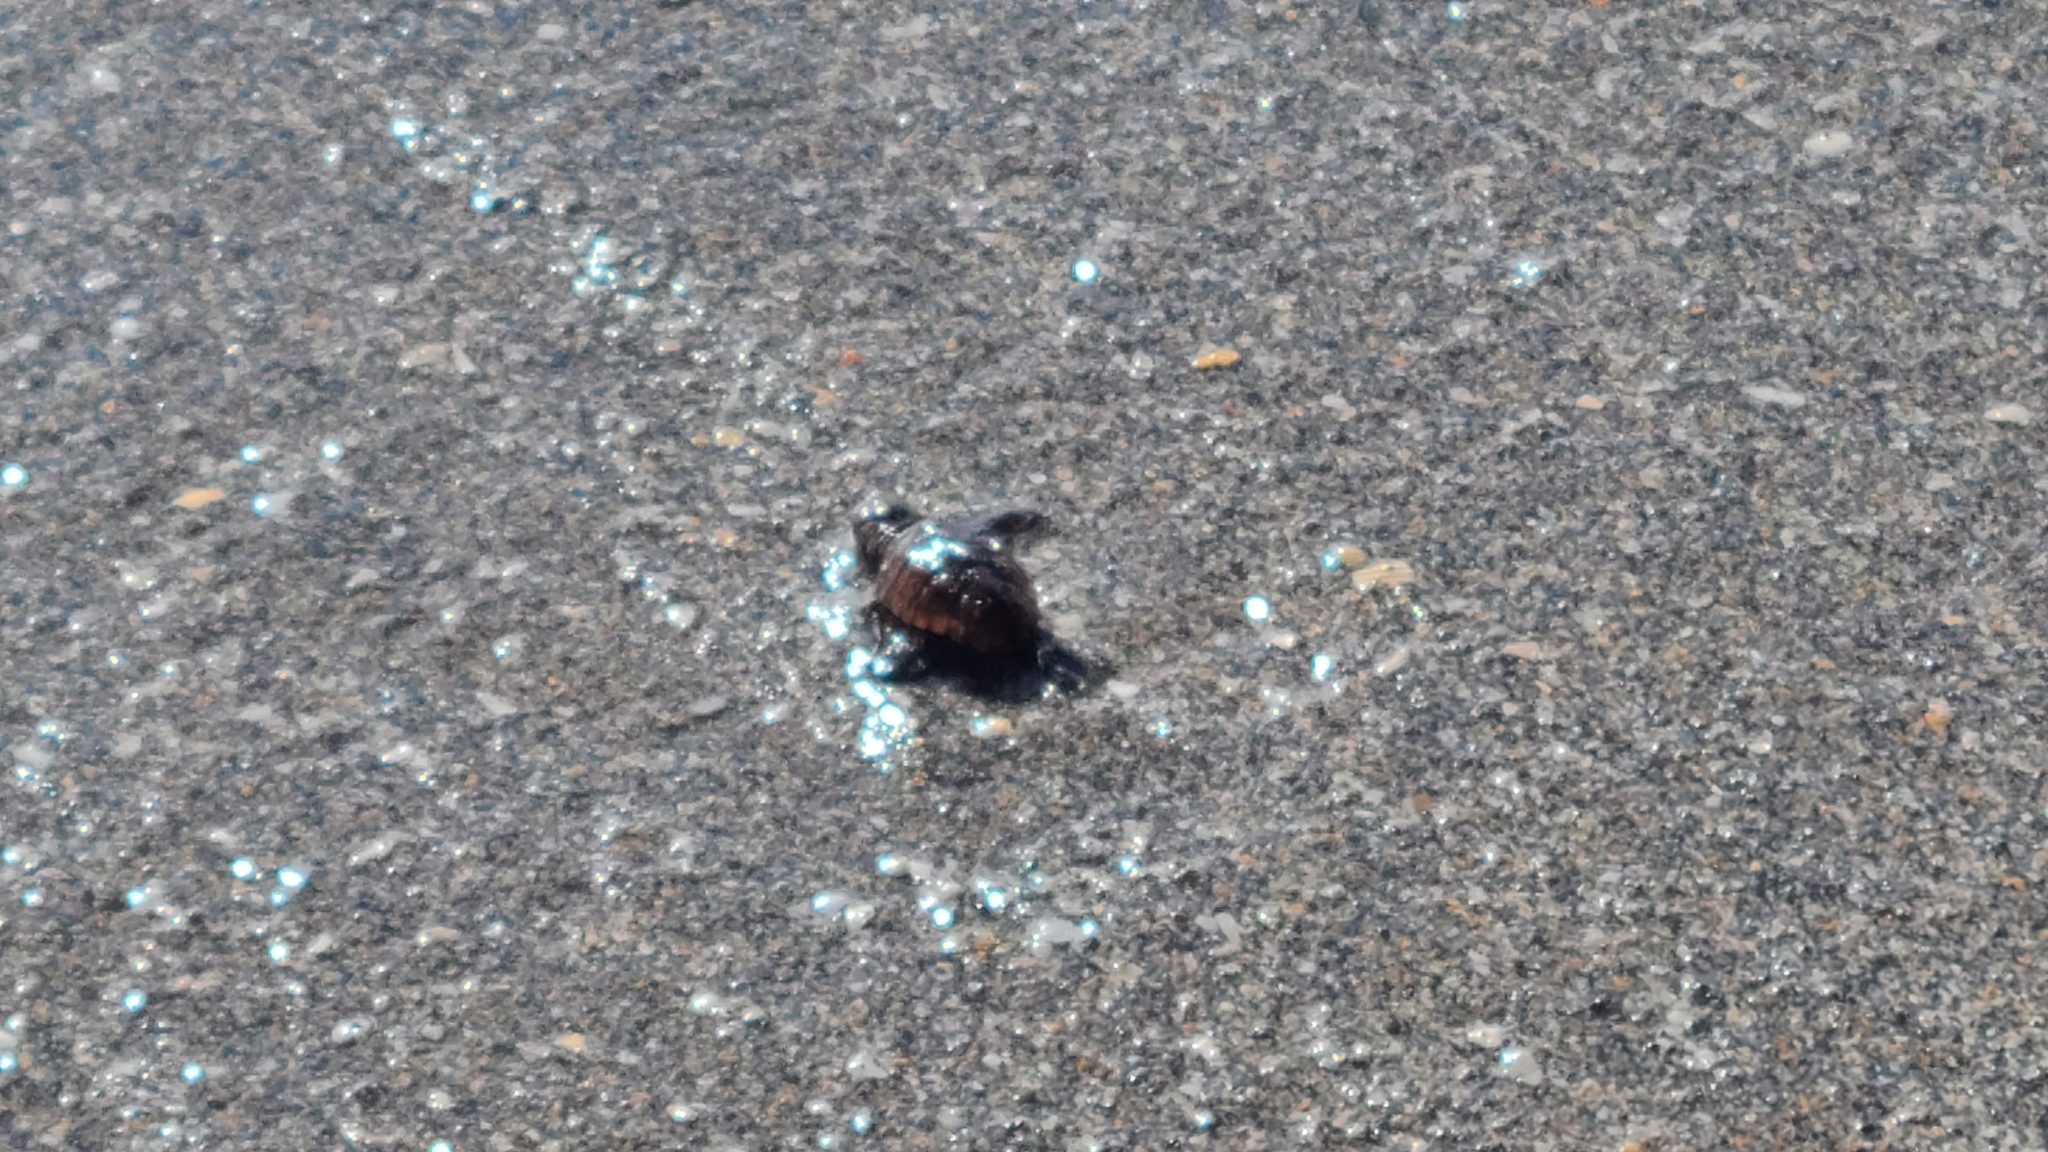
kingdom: Animalia
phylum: Chordata
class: Testudines
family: Cheloniidae
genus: Caretta
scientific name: Caretta caretta
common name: Loggerhead sea turtle
